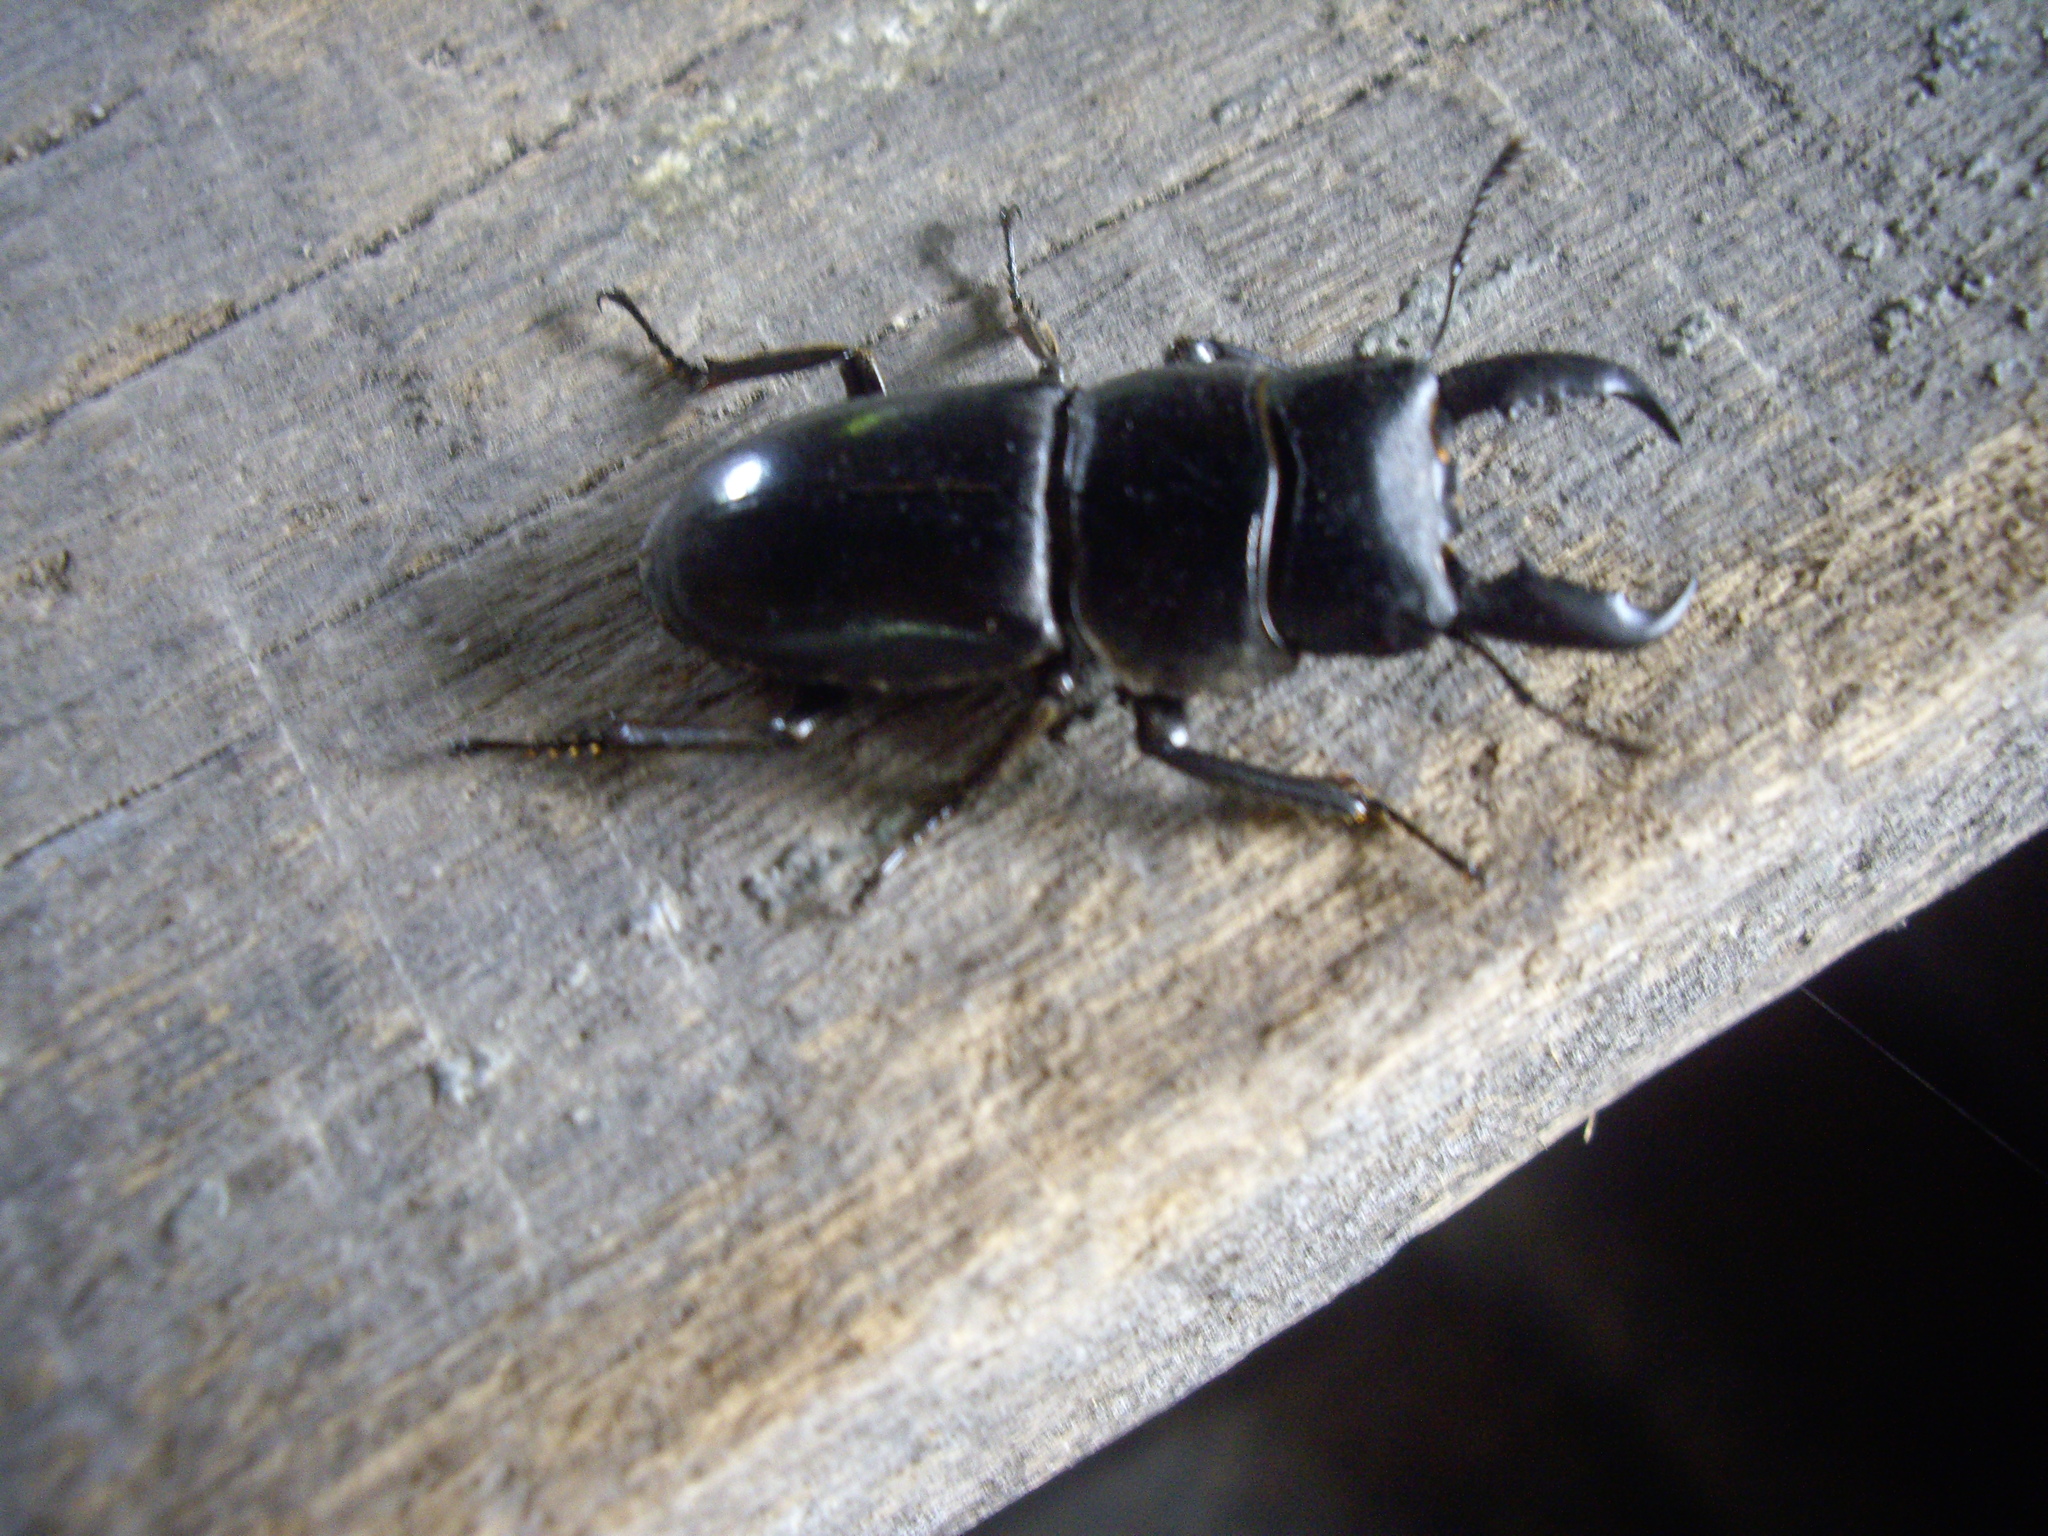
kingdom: Animalia
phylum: Arthropoda
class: Insecta
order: Coleoptera
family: Lucanidae
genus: Serrognathus
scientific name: Serrognathus titanus
